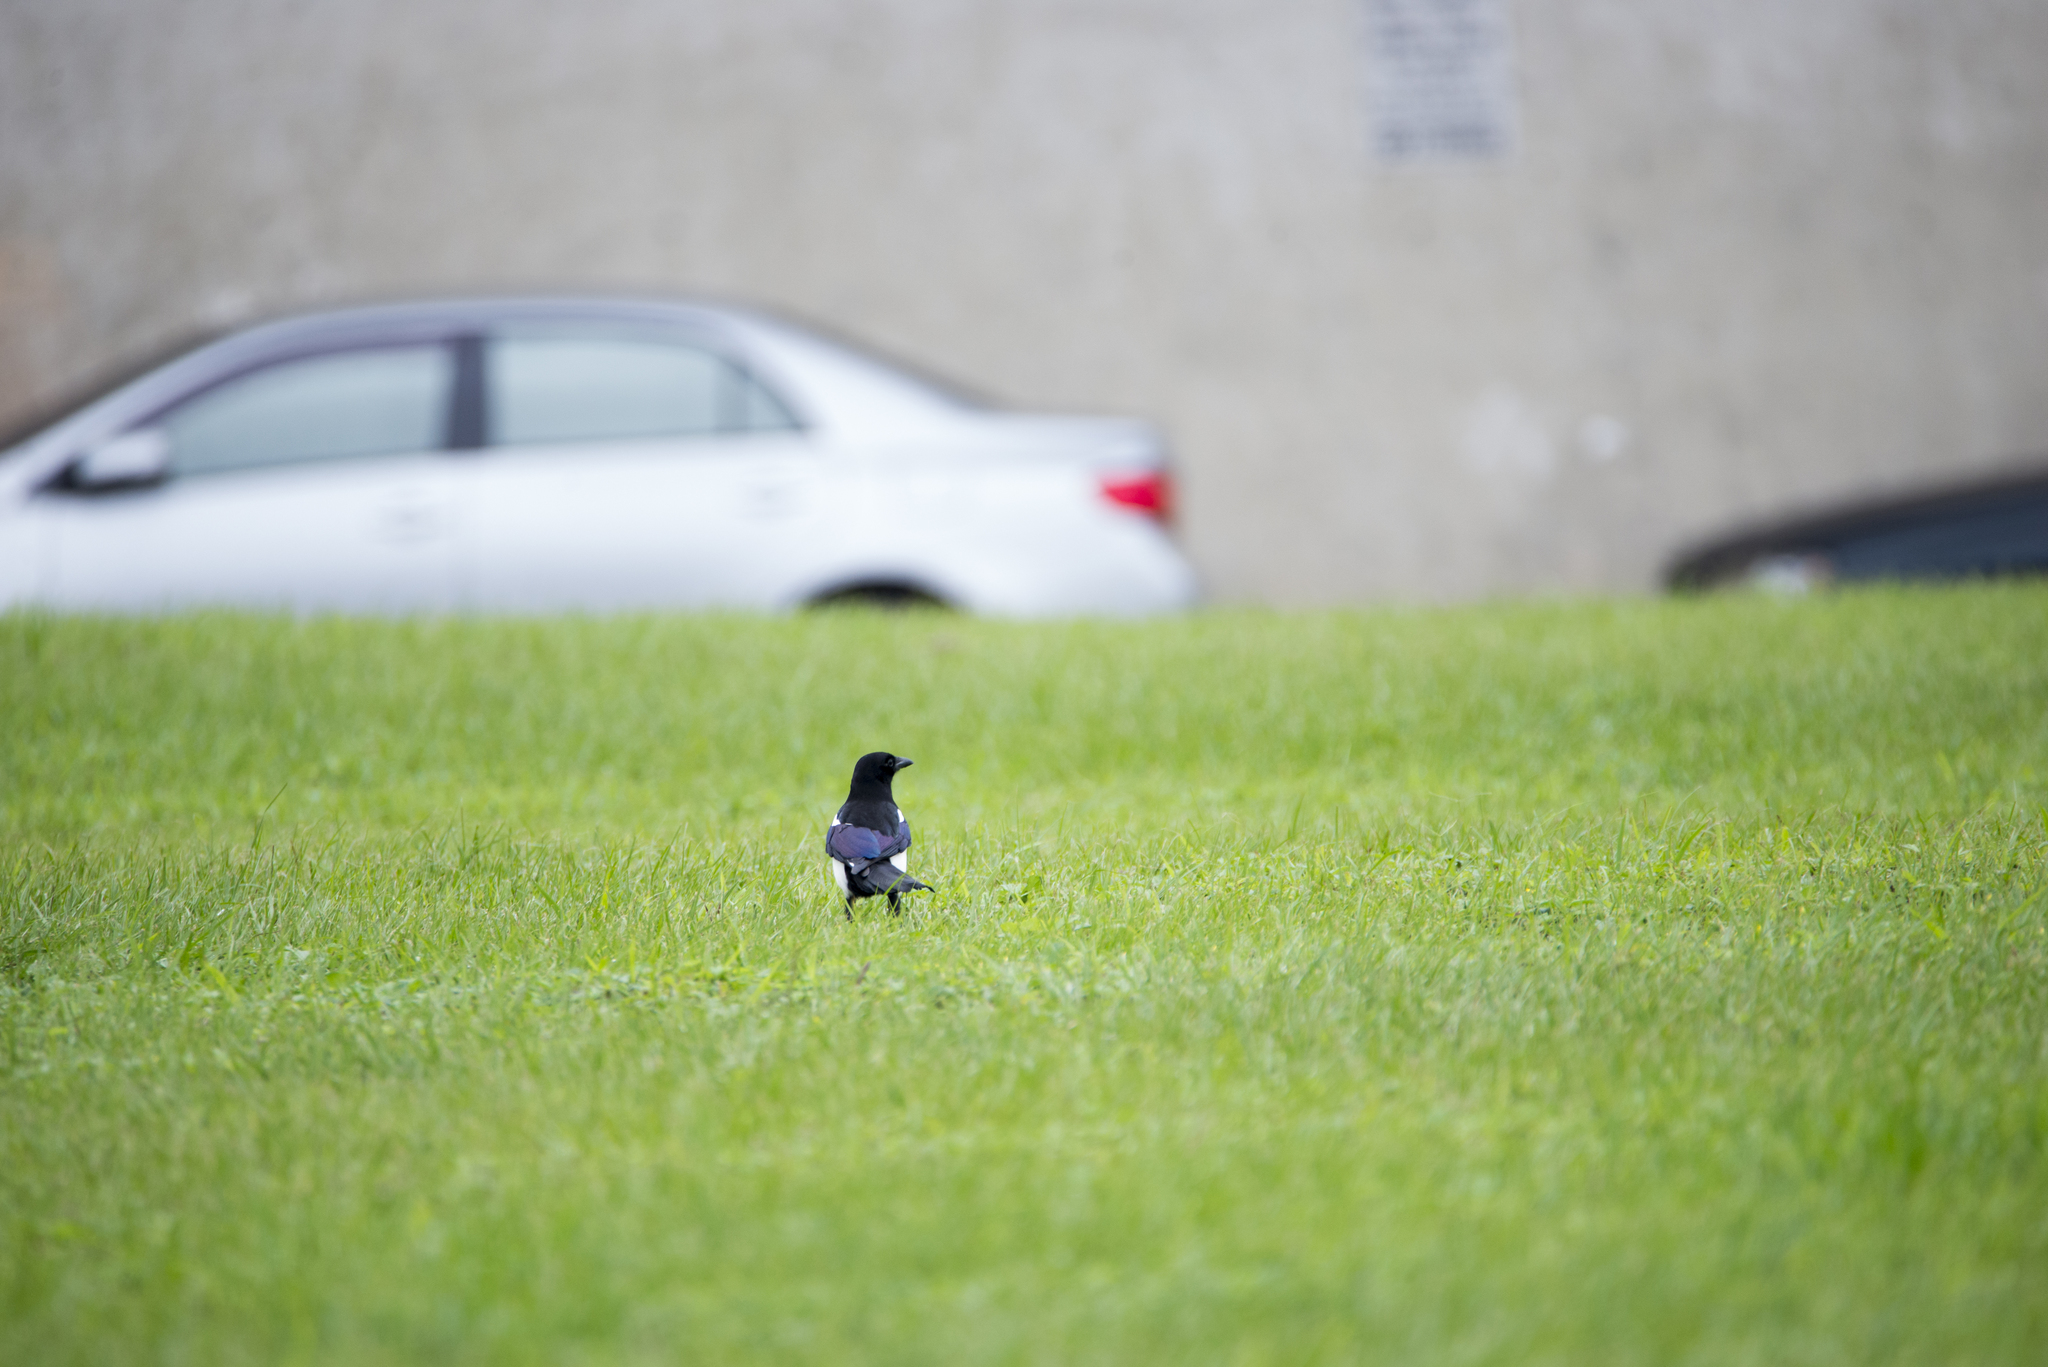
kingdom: Animalia
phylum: Chordata
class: Aves
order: Passeriformes
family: Corvidae
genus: Pica
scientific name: Pica serica
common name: Oriental magpie
